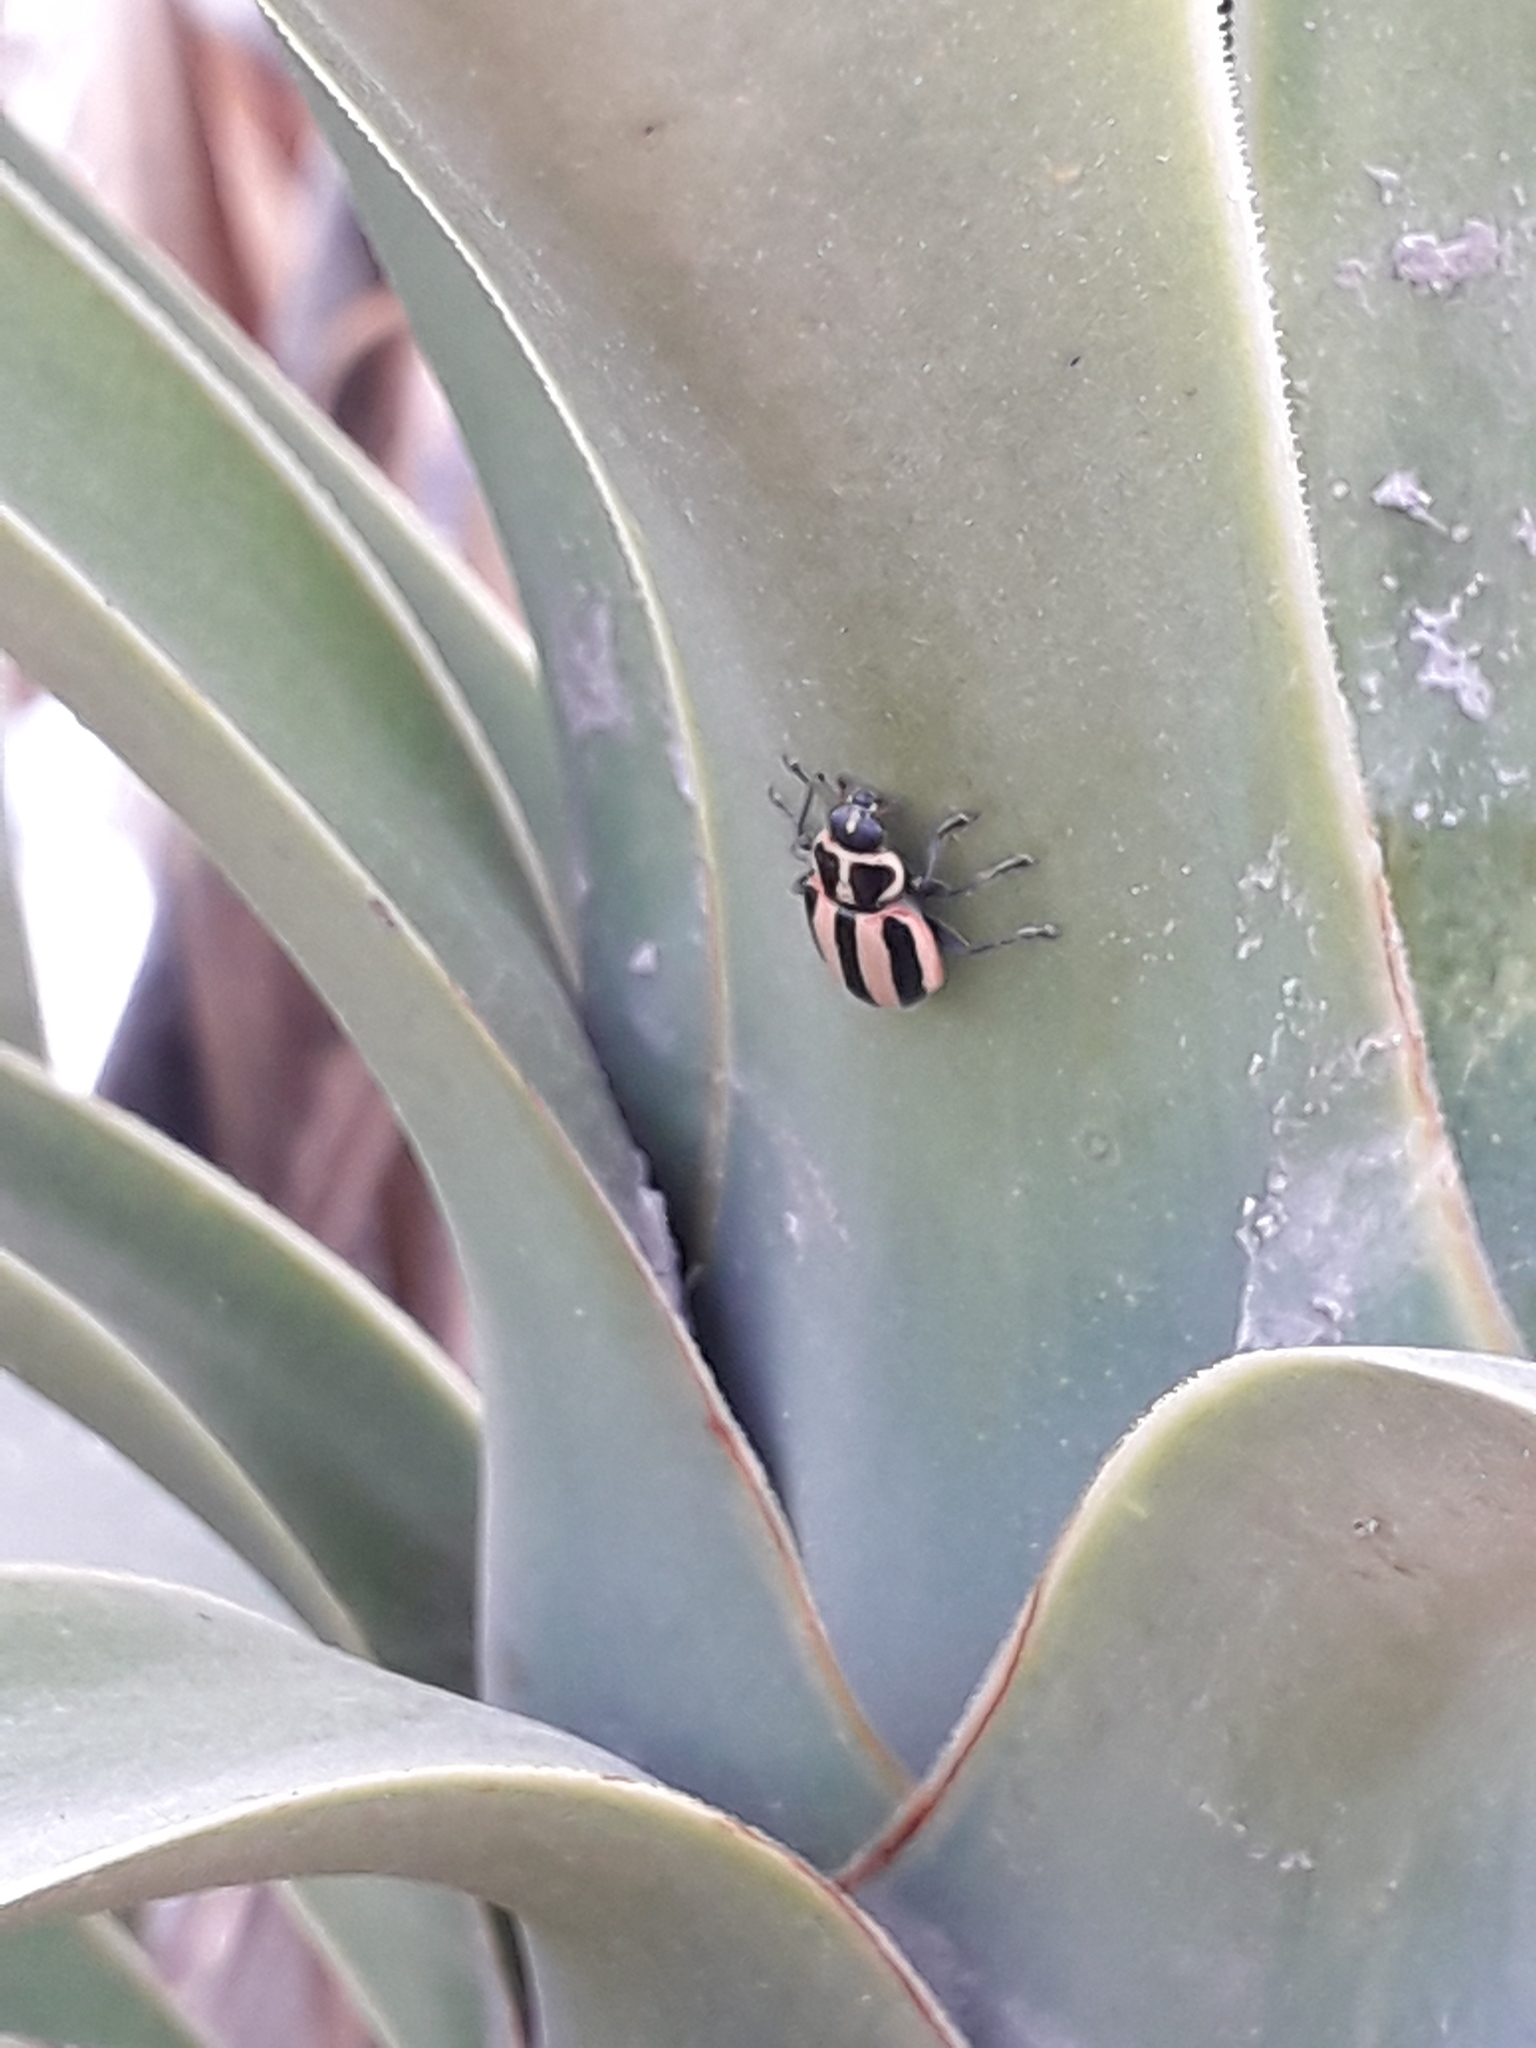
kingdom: Animalia
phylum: Arthropoda
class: Insecta
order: Coleoptera
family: Coccinellidae
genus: Paranaemia
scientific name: Paranaemia vittigera
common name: Ladybird beetle
